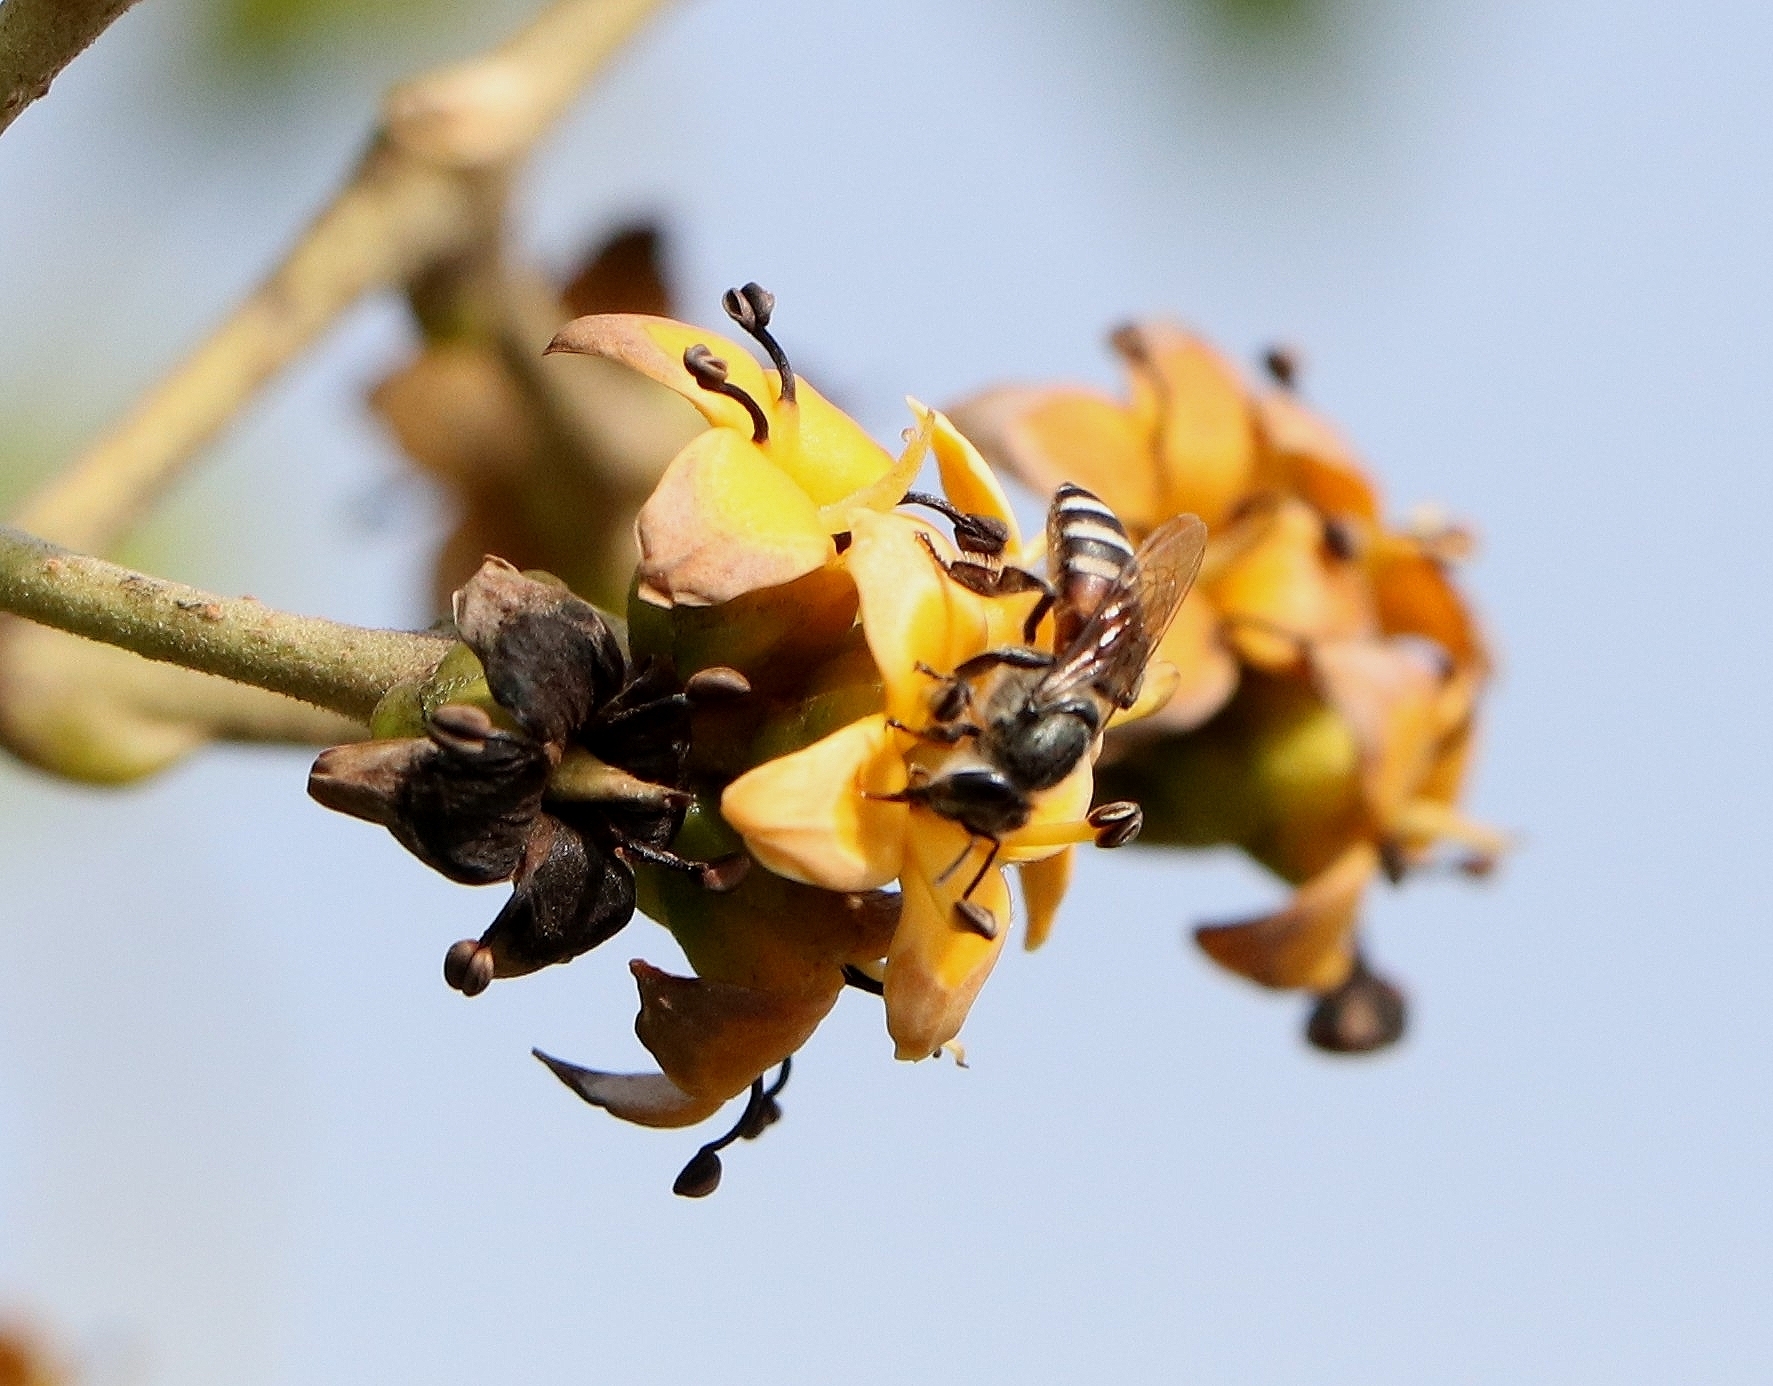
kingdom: Animalia
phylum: Arthropoda
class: Insecta
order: Hymenoptera
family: Apidae
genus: Apis
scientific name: Apis florea
